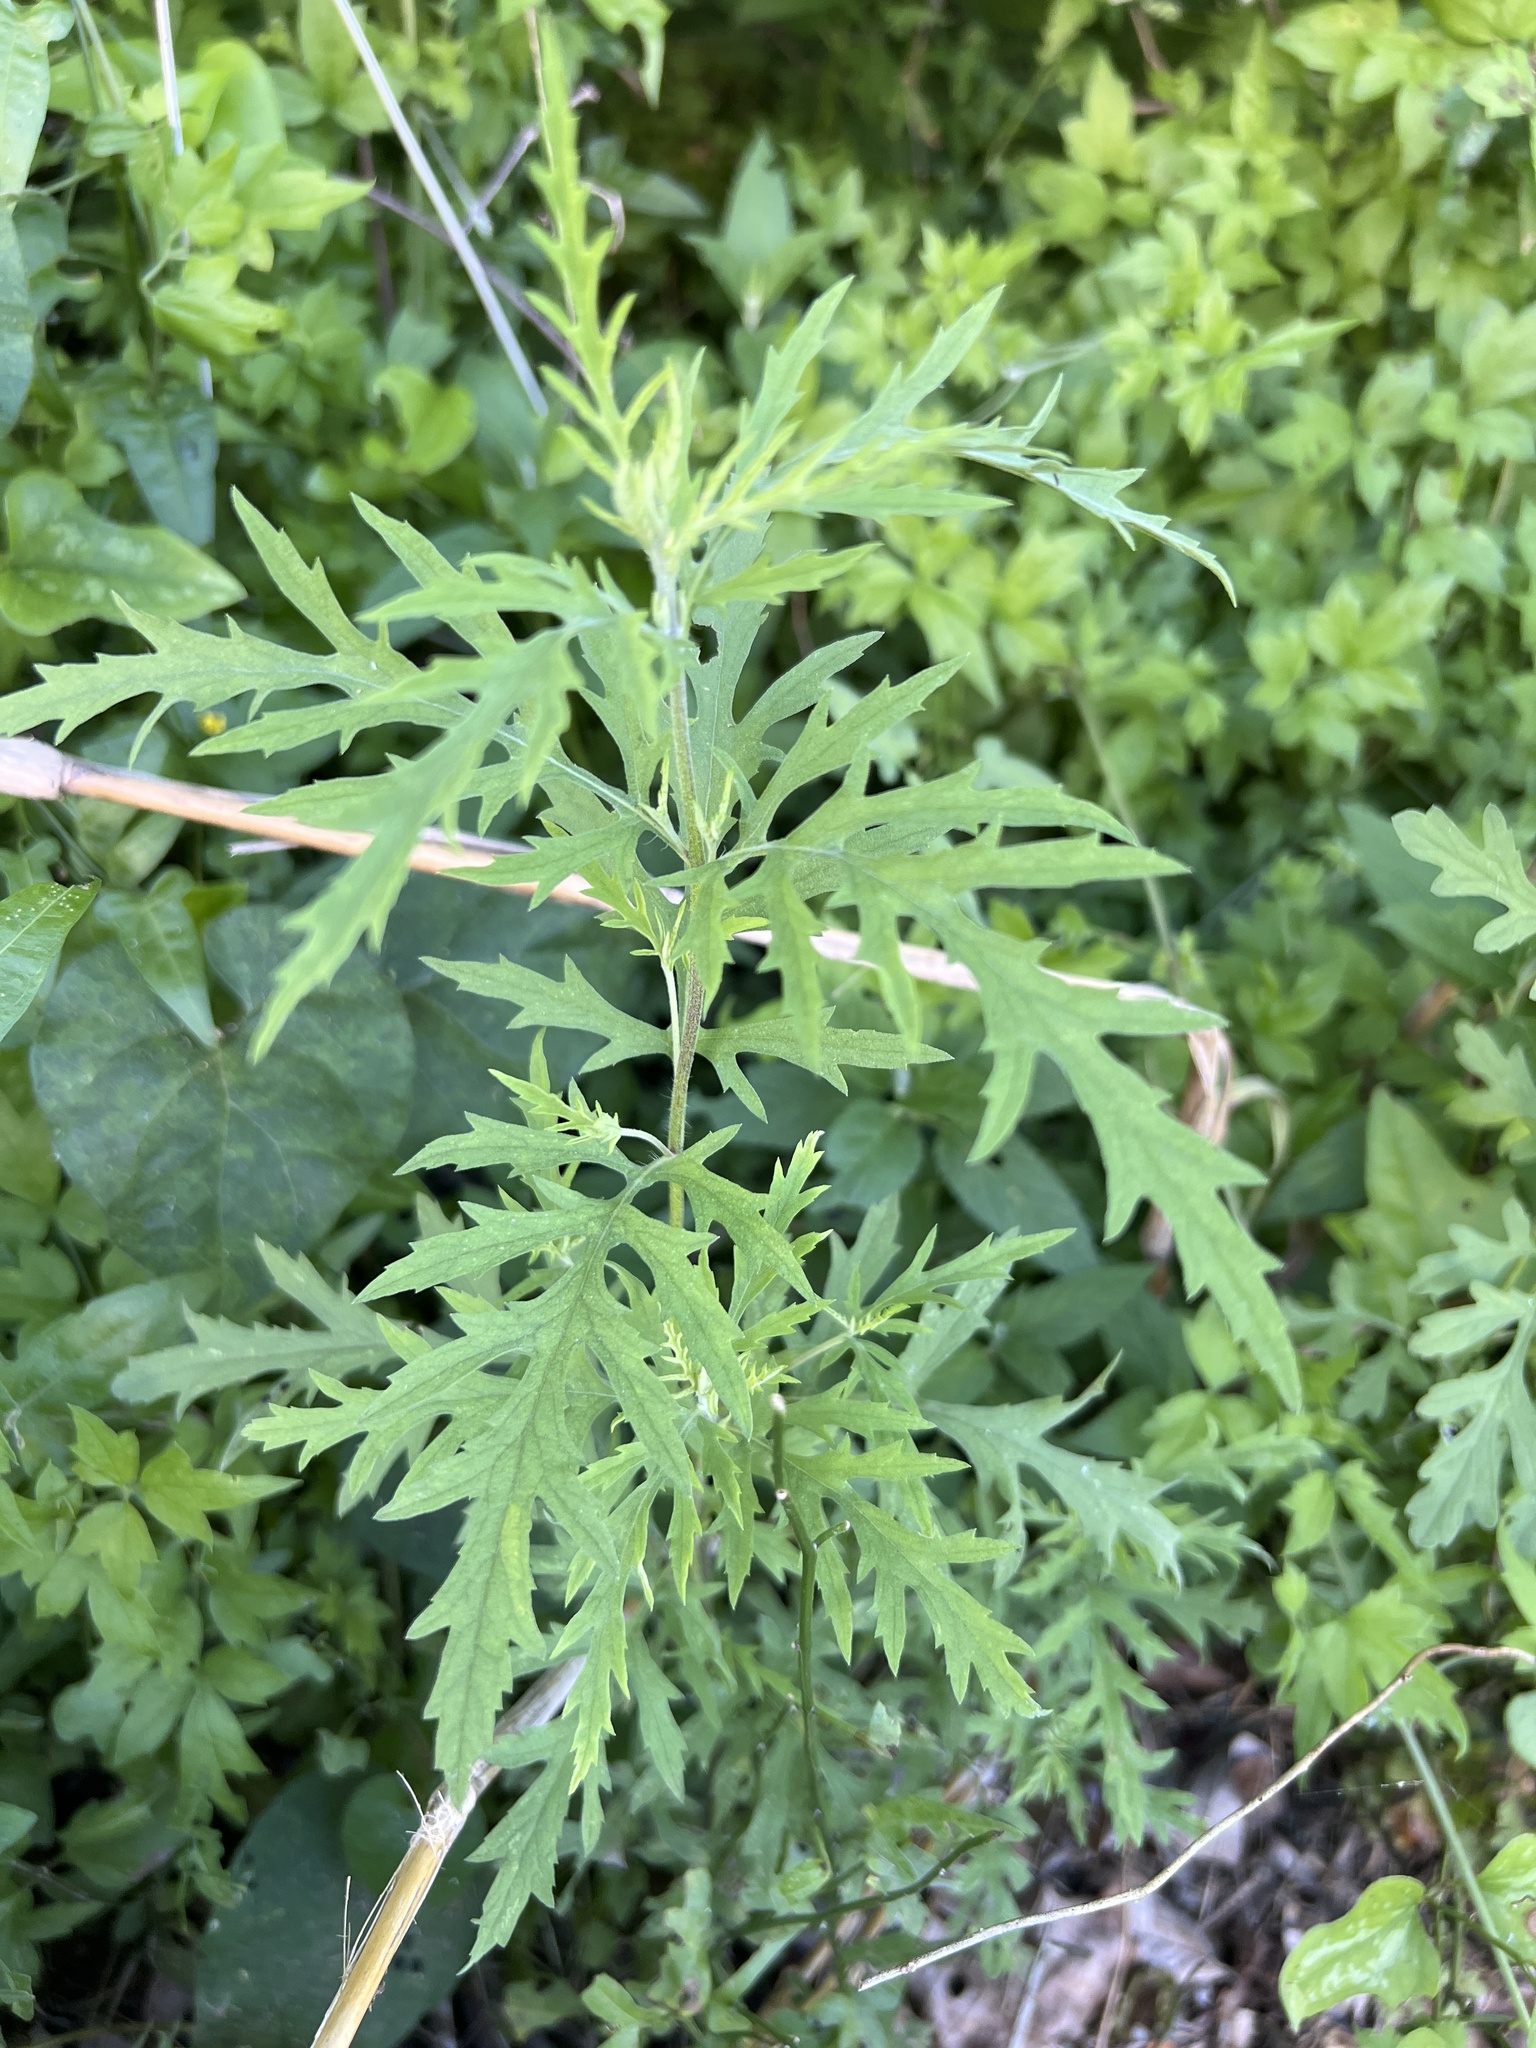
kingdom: Plantae
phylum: Tracheophyta
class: Magnoliopsida
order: Asterales
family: Asteraceae
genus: Ambrosia
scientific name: Ambrosia artemisiifolia
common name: Annual ragweed
